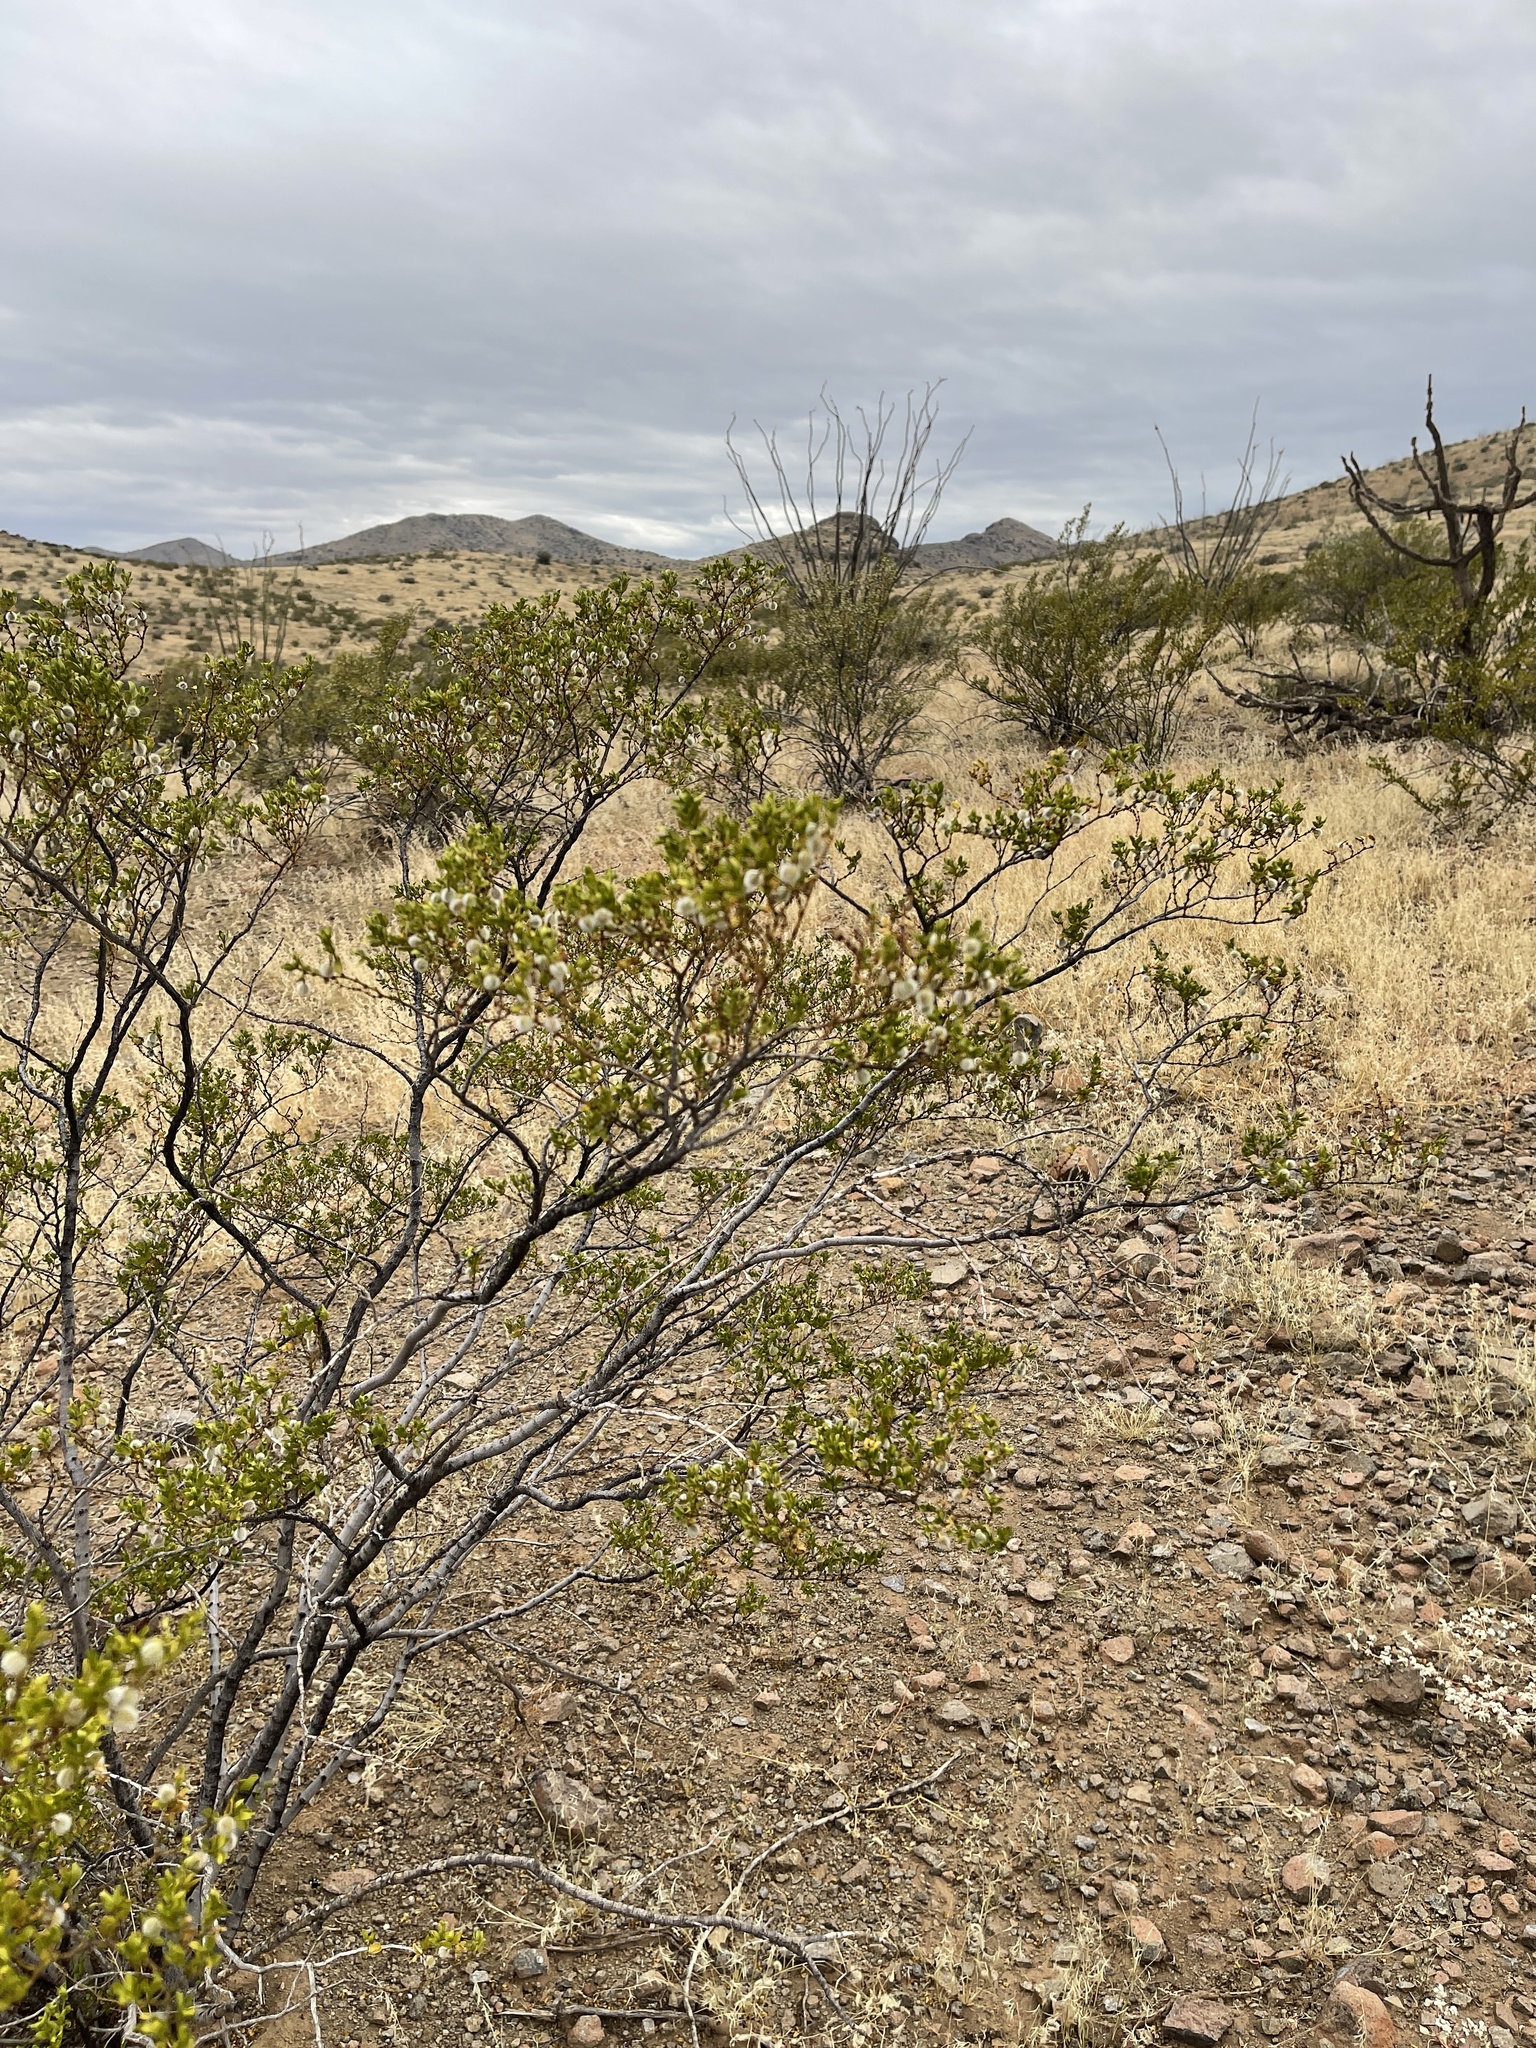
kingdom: Plantae
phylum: Tracheophyta
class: Magnoliopsida
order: Zygophyllales
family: Zygophyllaceae
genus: Larrea
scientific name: Larrea tridentata
